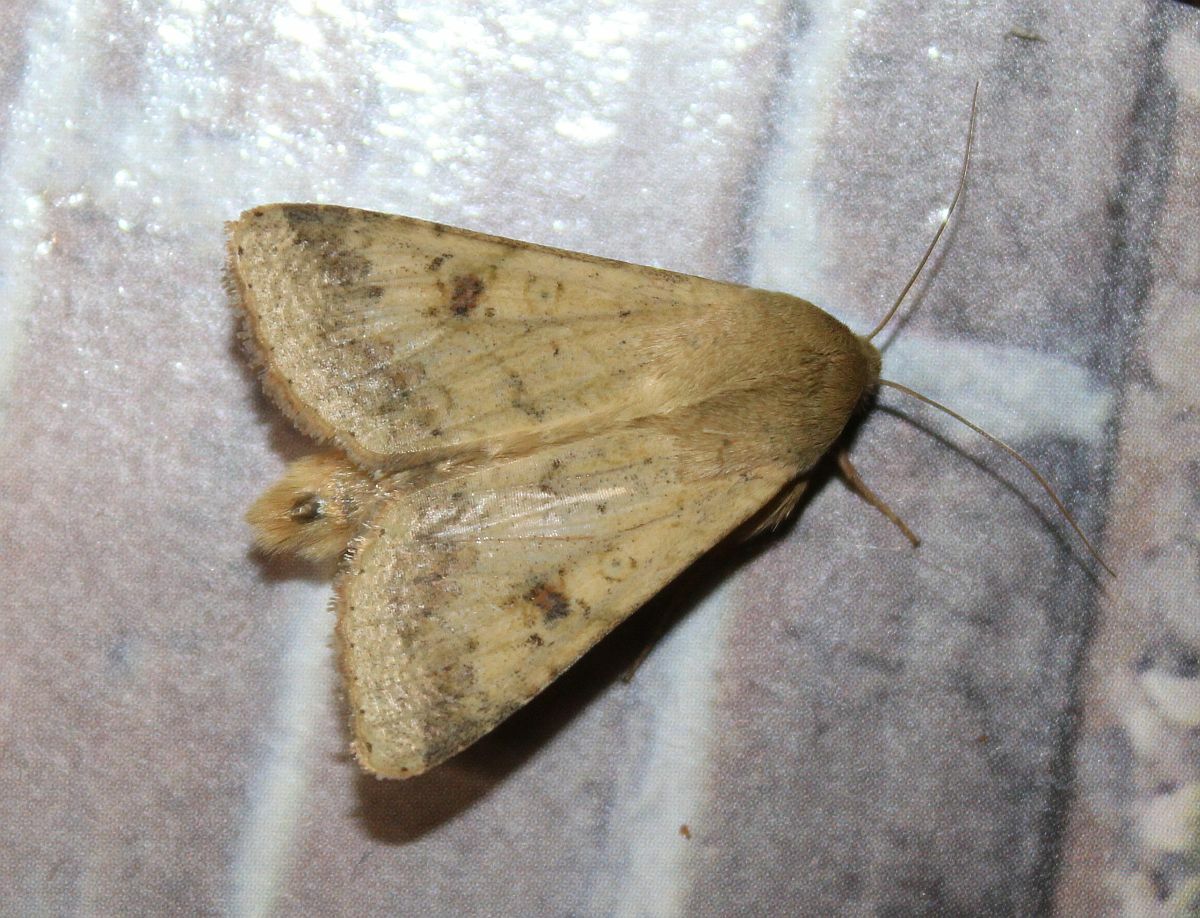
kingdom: Animalia
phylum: Arthropoda
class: Insecta
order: Lepidoptera
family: Noctuidae
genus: Helicoverpa
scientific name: Helicoverpa armigera
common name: Cotton bollworm
